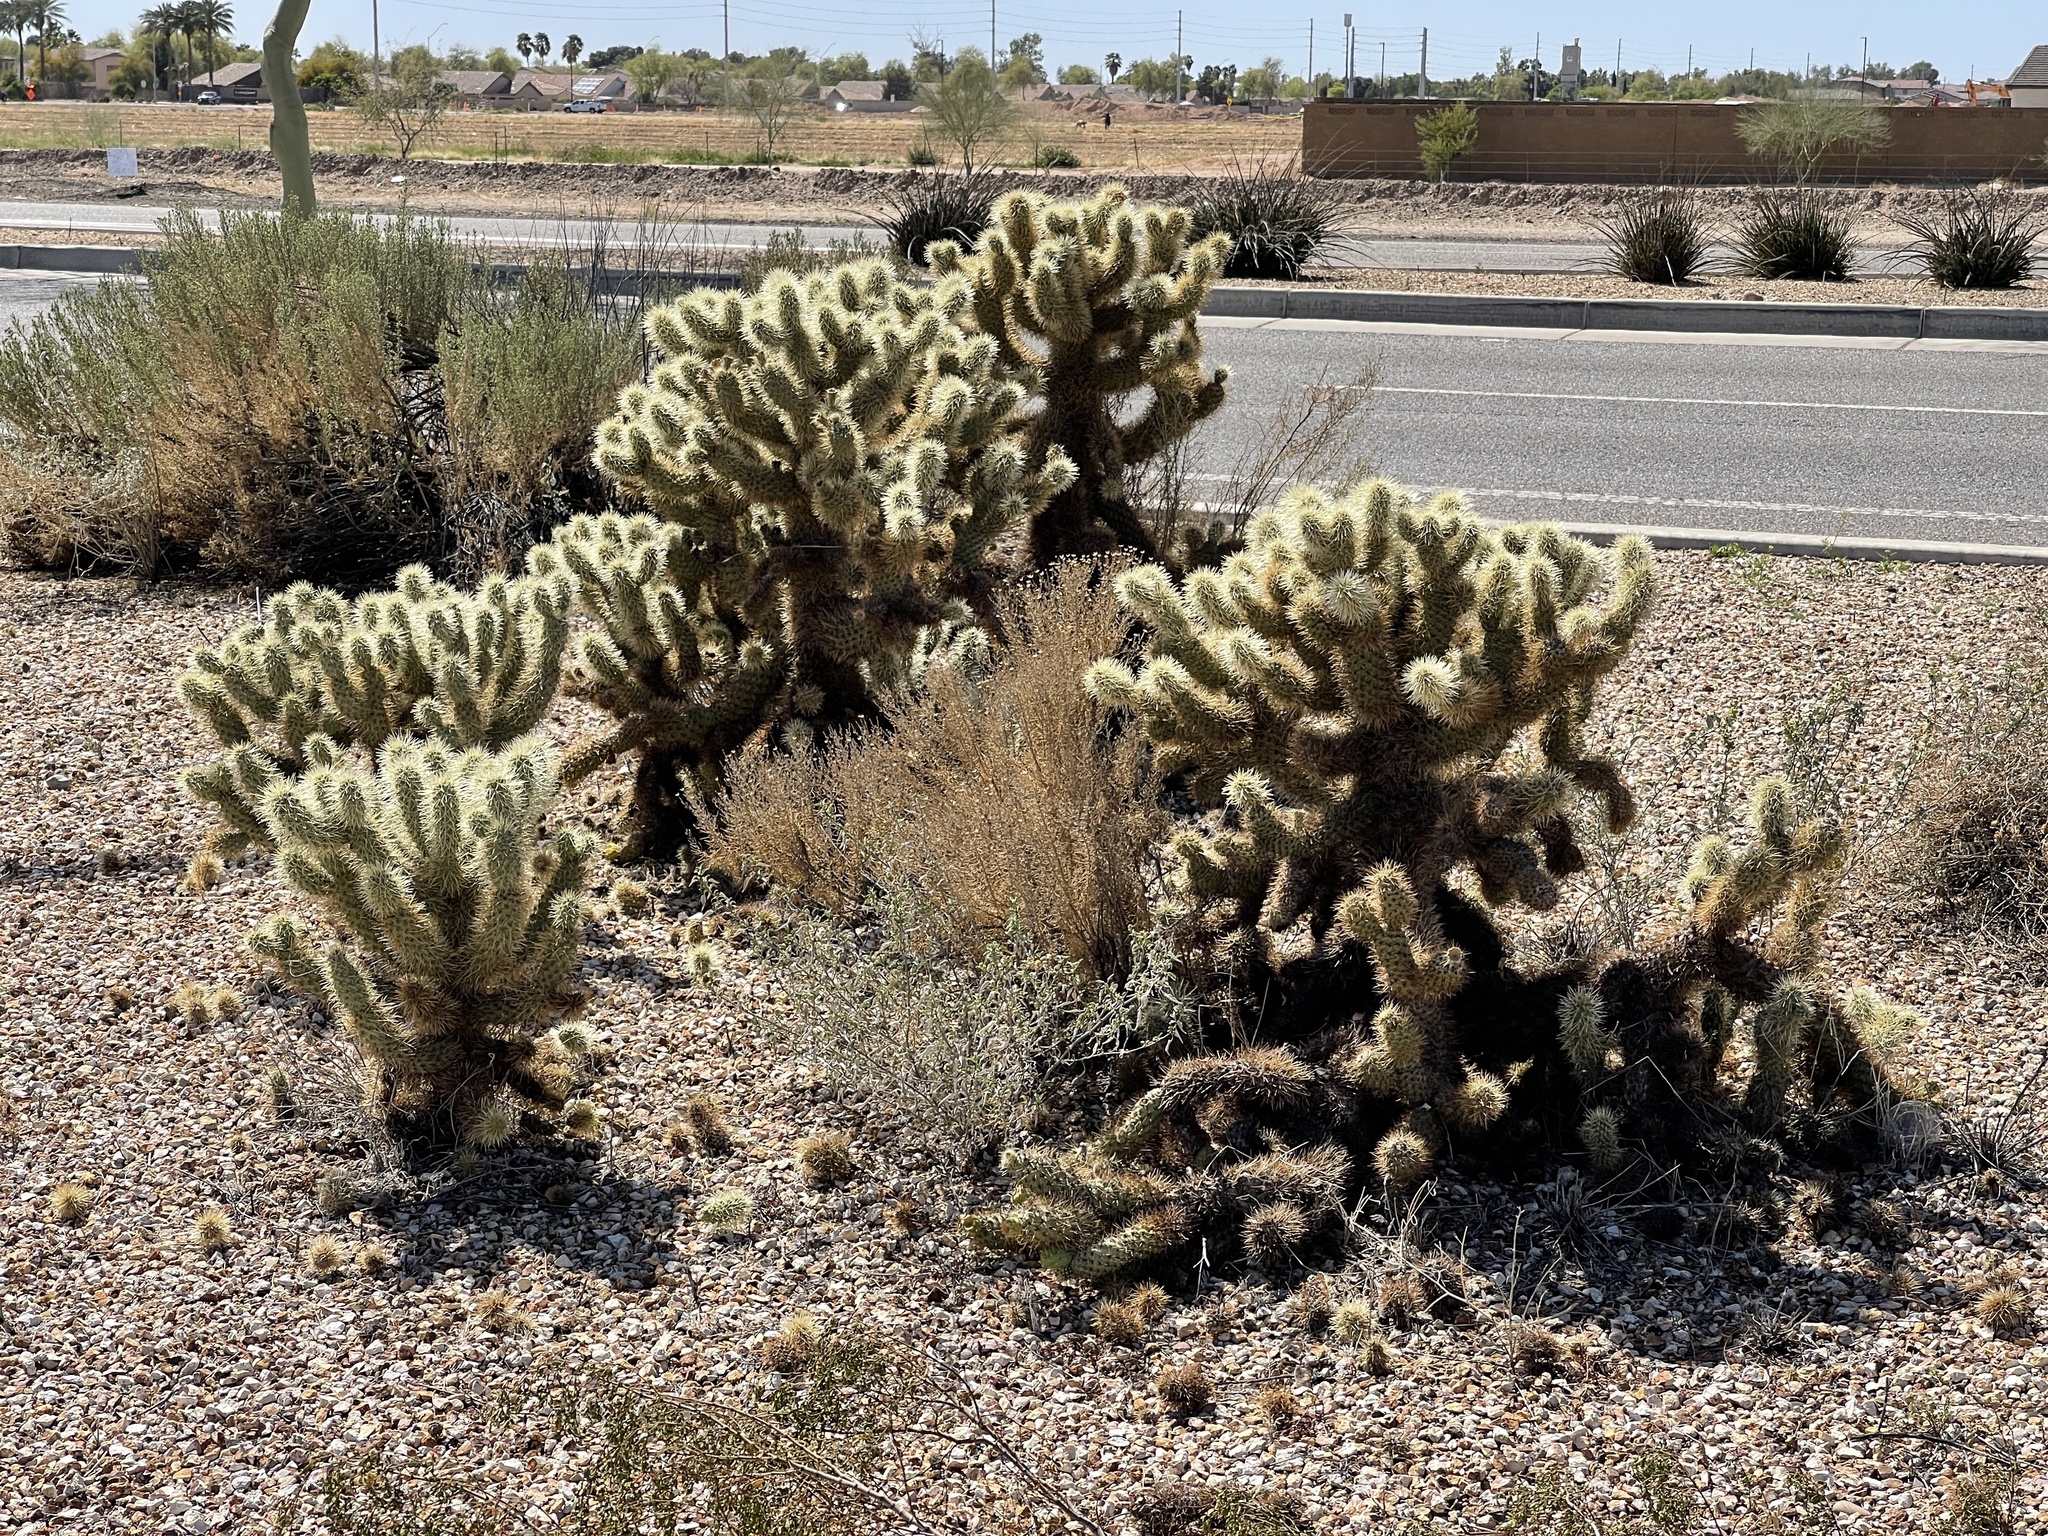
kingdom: Plantae
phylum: Tracheophyta
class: Magnoliopsida
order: Caryophyllales
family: Cactaceae
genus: Cylindropuntia
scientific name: Cylindropuntia fosbergii
